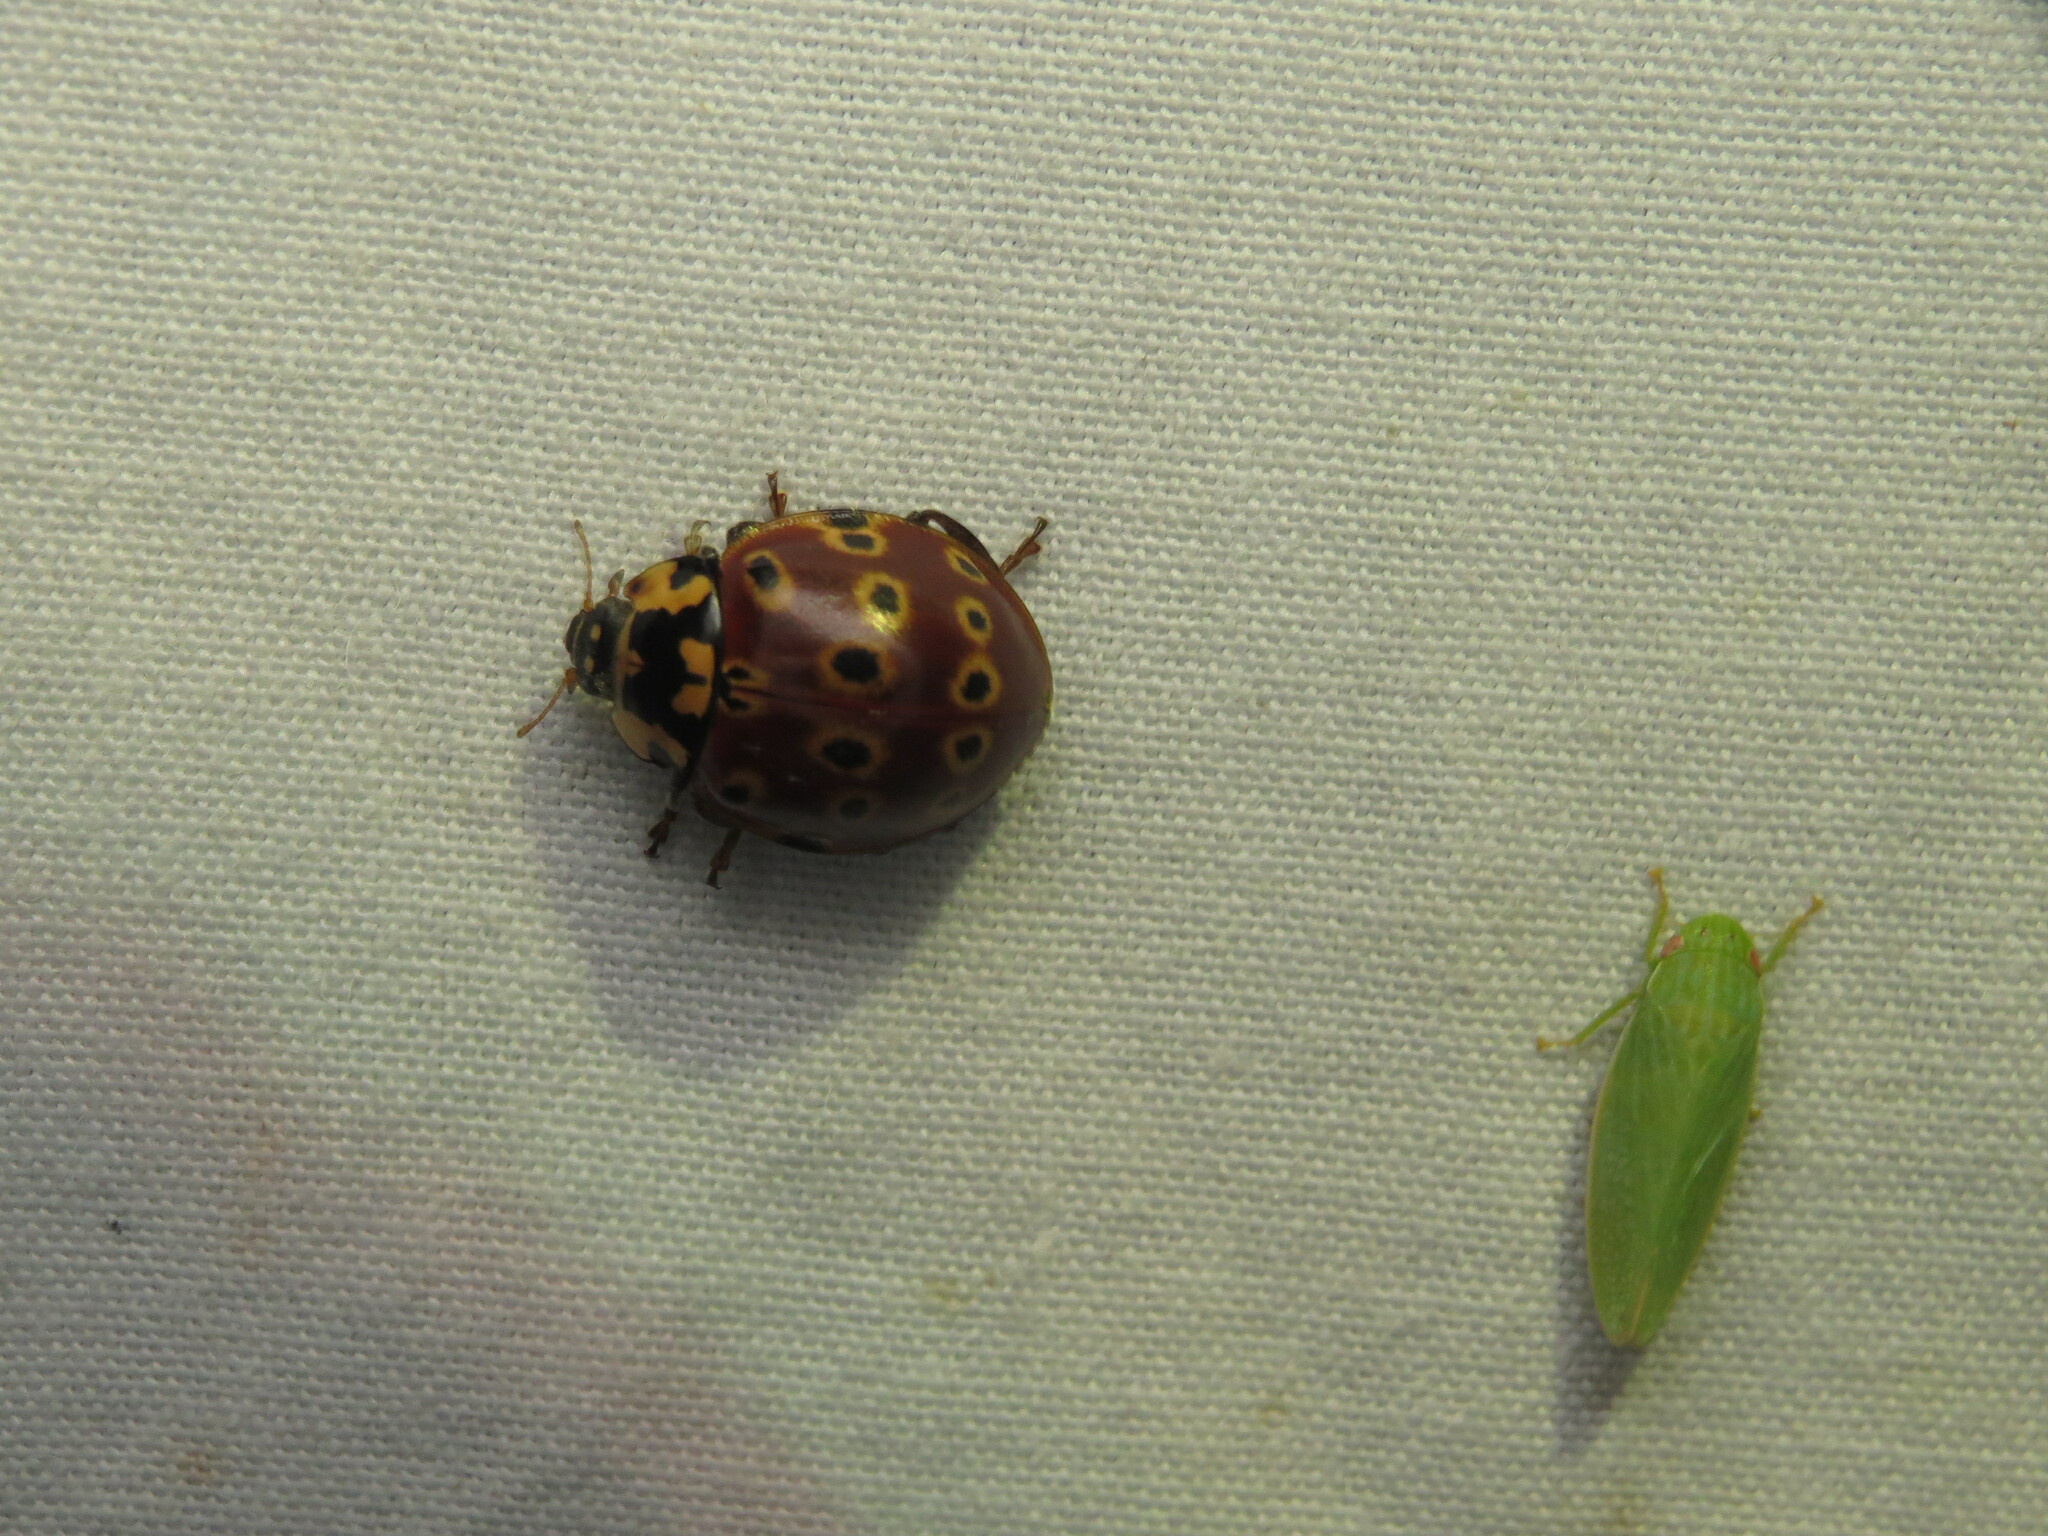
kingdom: Animalia
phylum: Arthropoda
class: Insecta
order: Coleoptera
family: Coccinellidae
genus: Anatis
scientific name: Anatis mali
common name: Eye-spotted lady beetle
